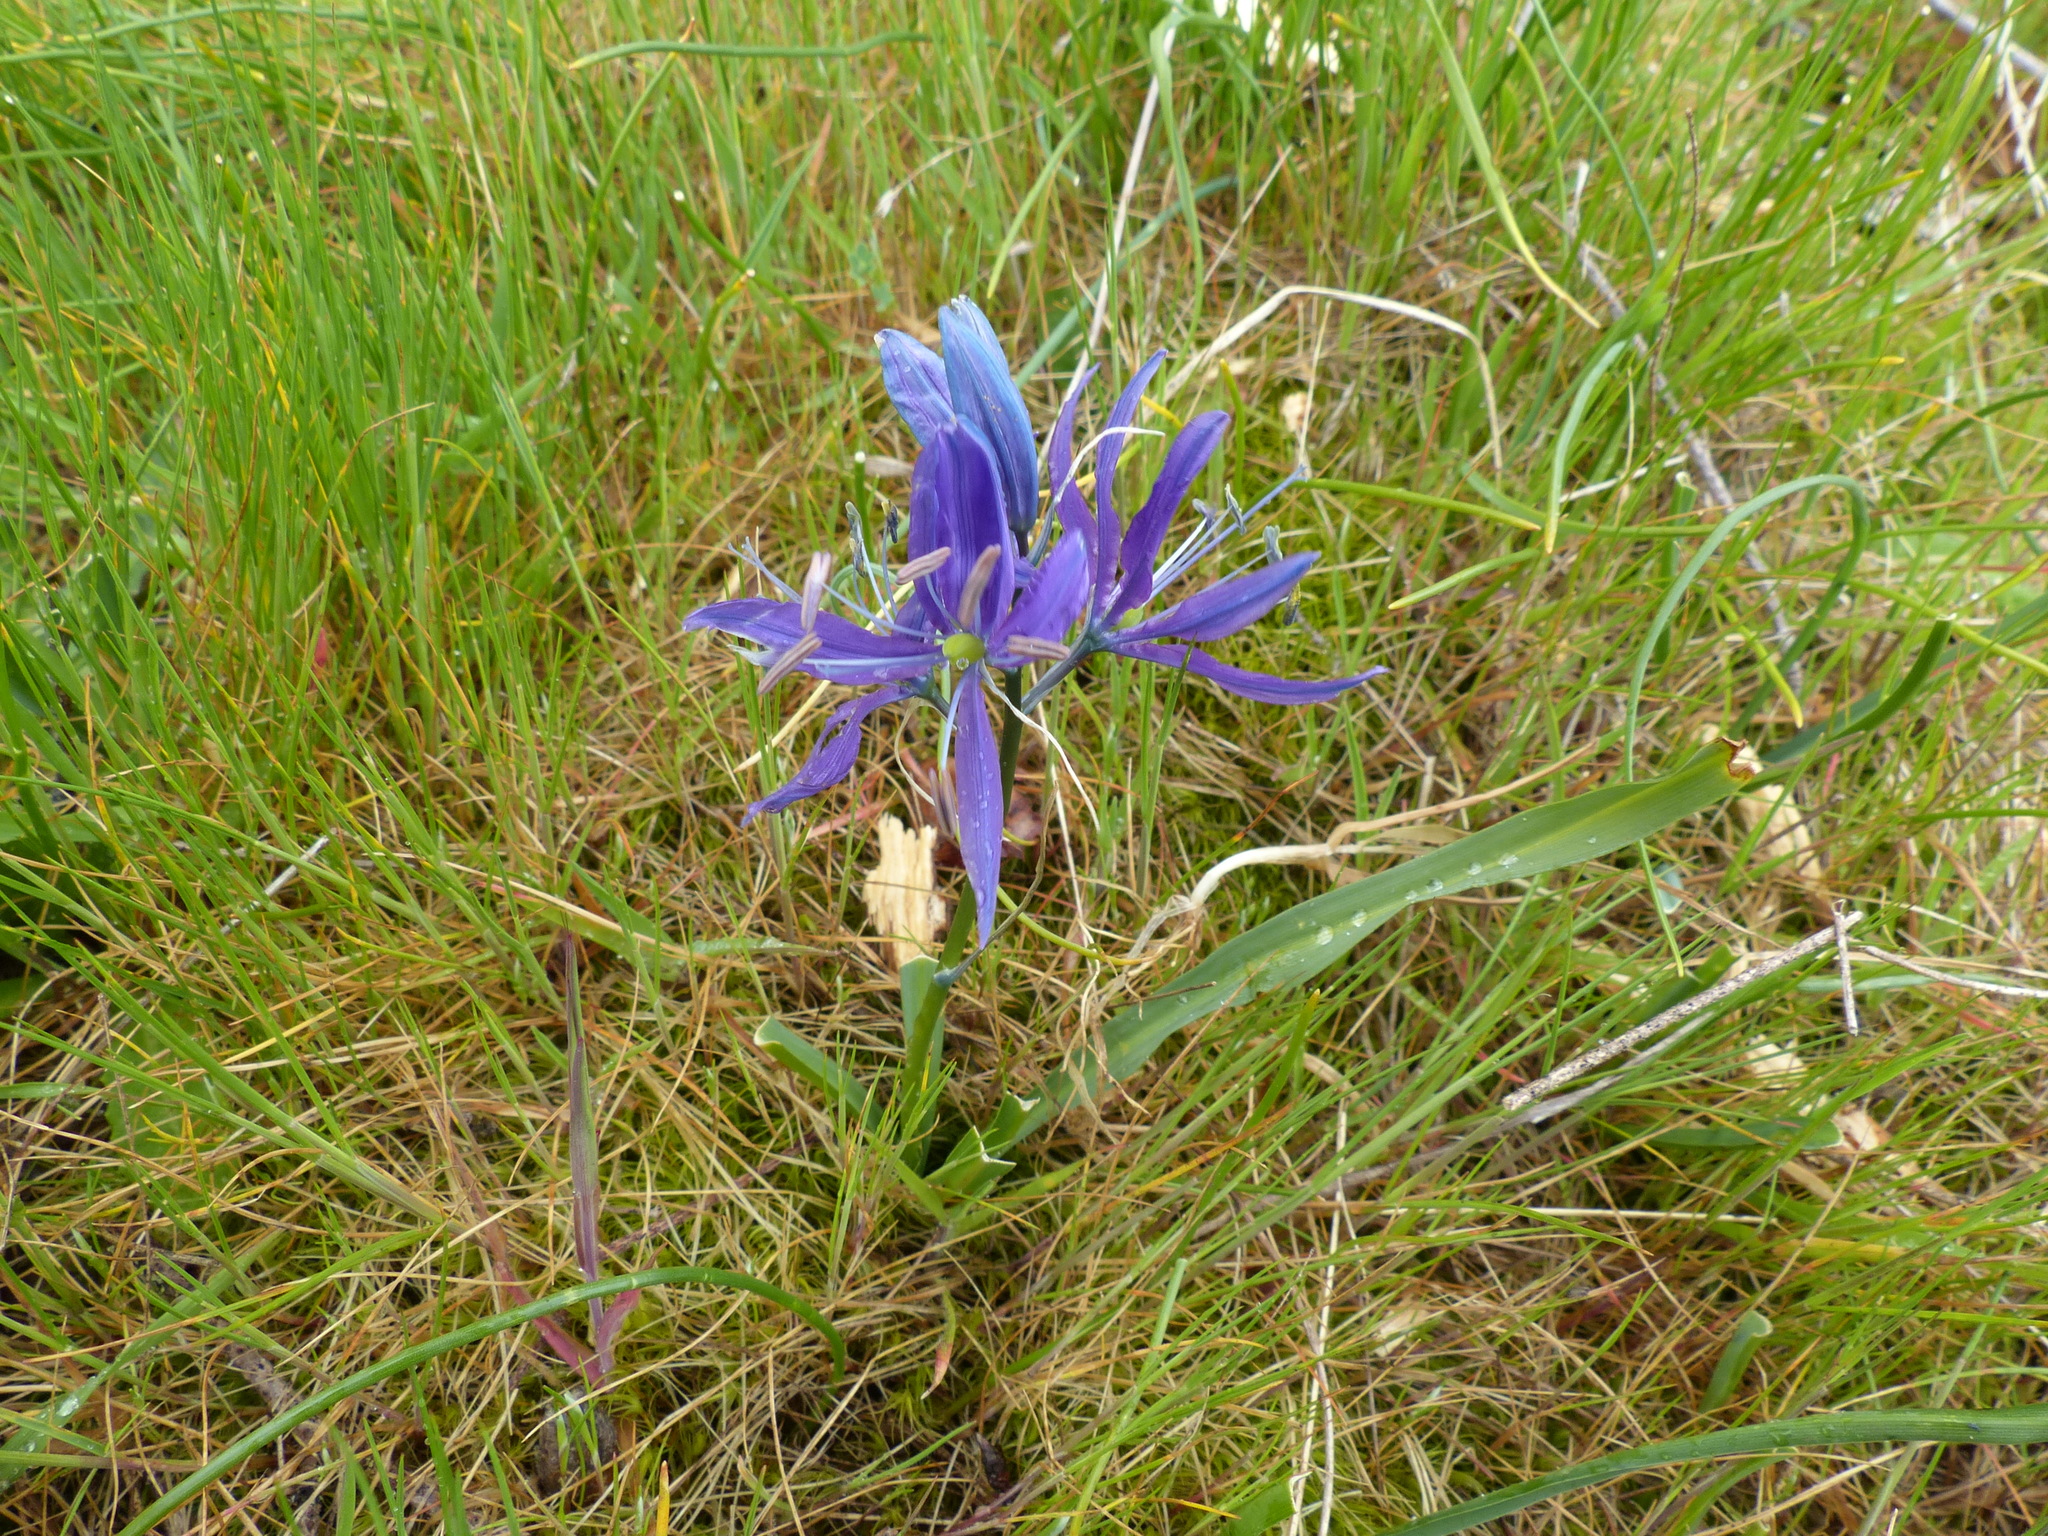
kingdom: Plantae
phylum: Tracheophyta
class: Liliopsida
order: Asparagales
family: Asparagaceae
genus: Camassia
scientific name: Camassia quamash
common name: Common camas
